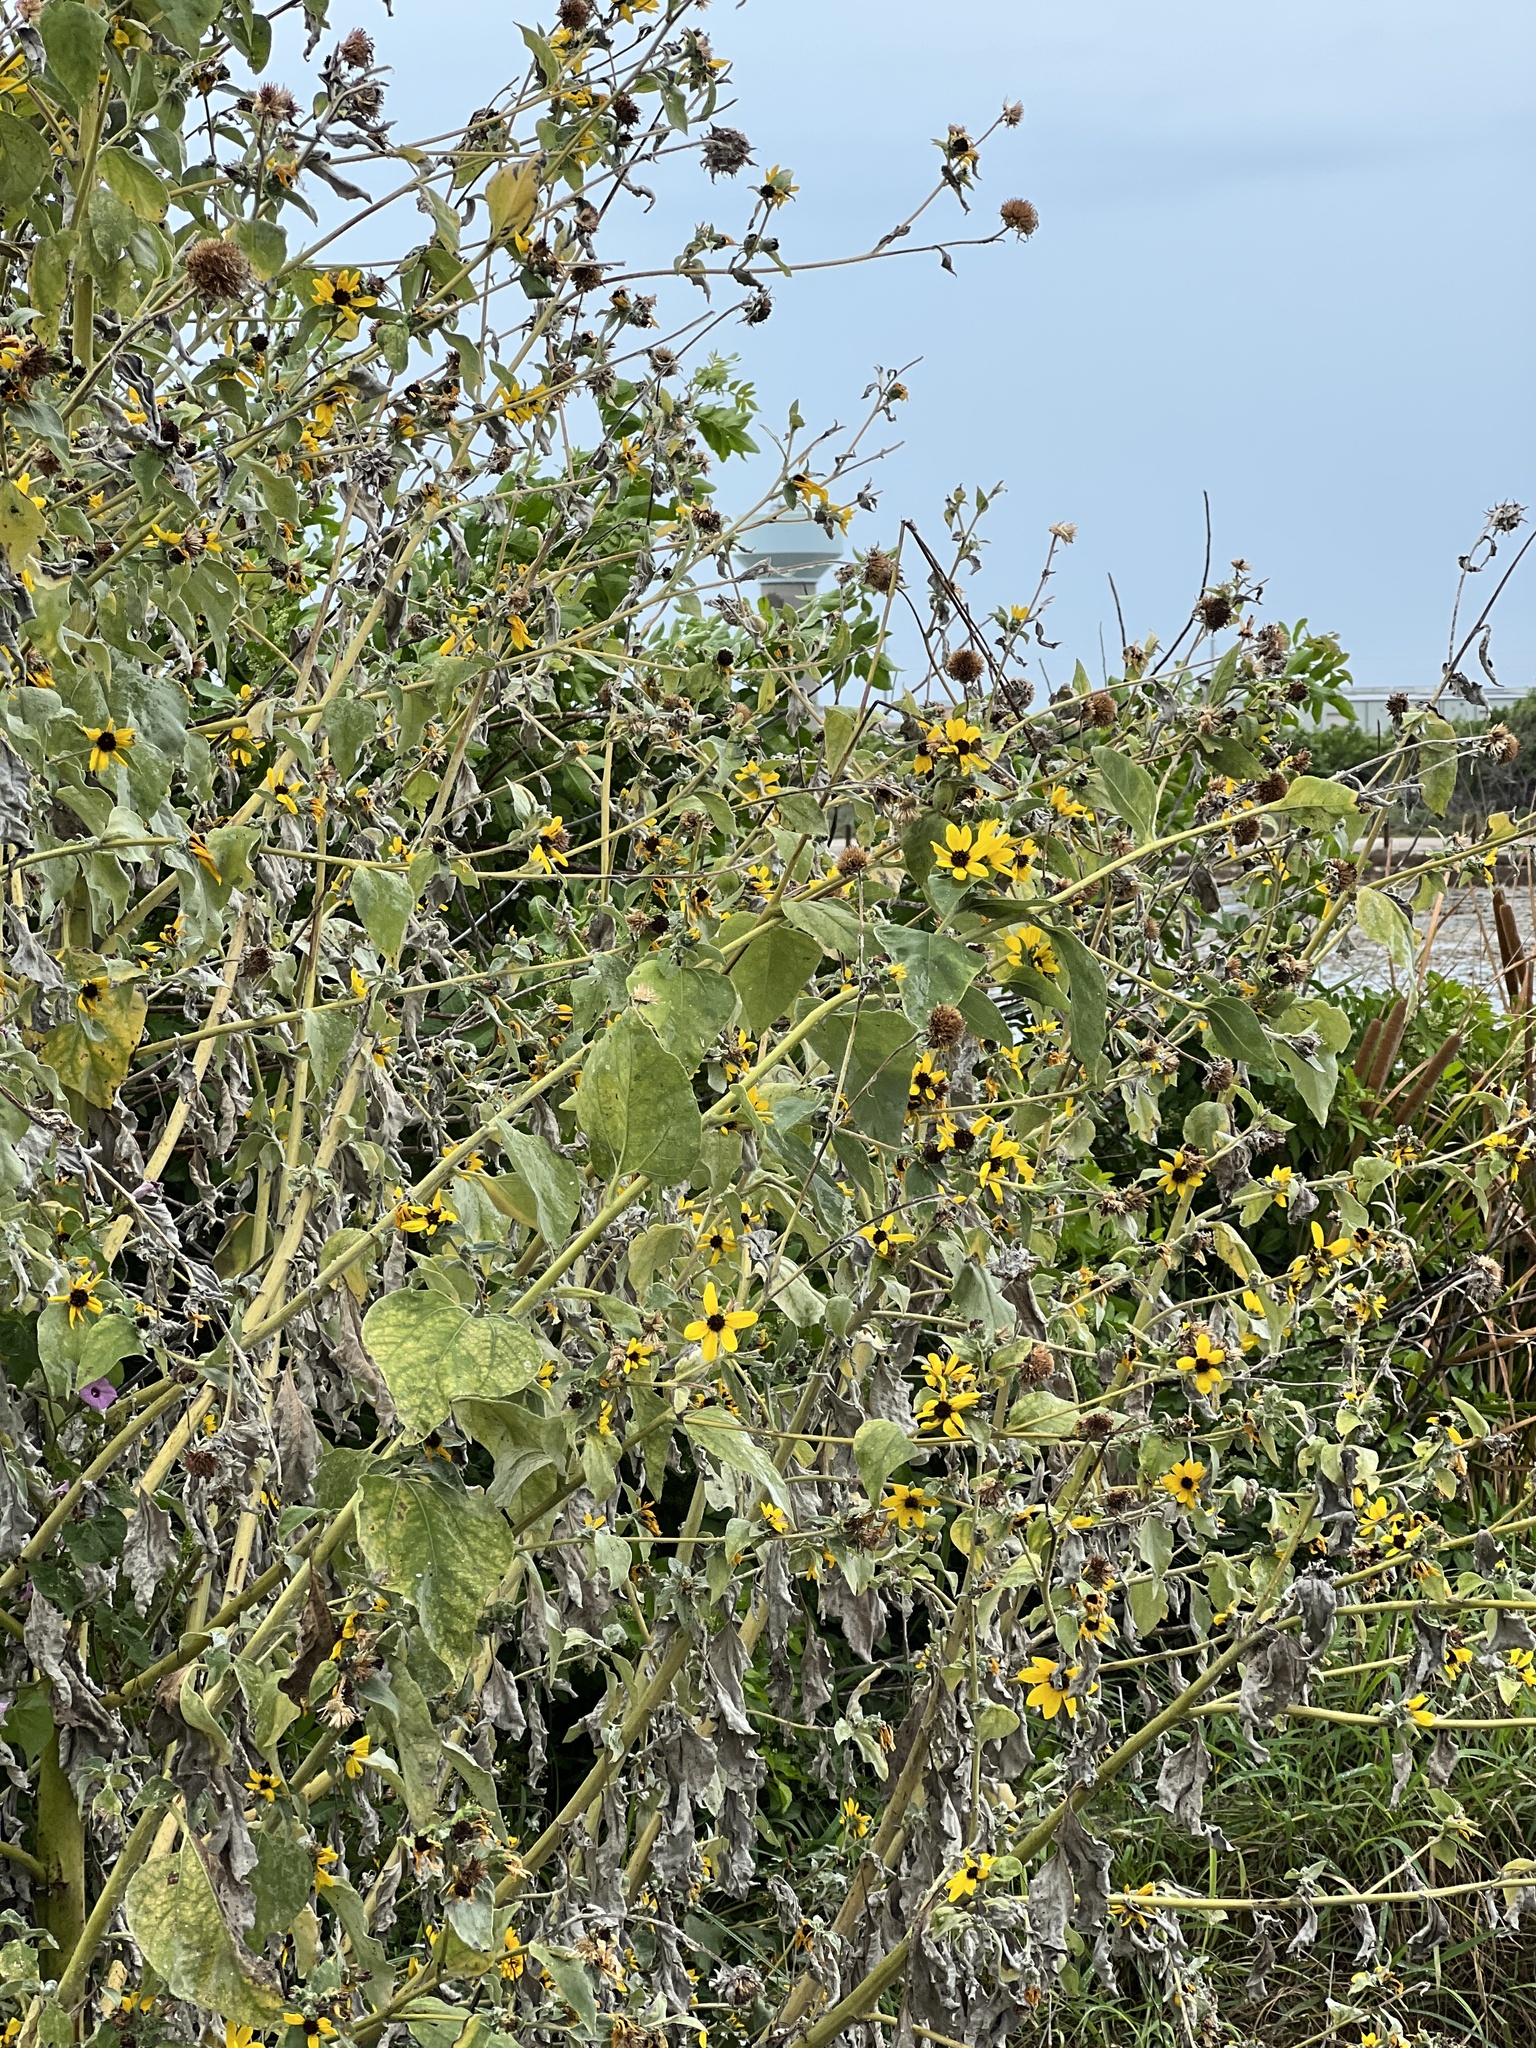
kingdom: Plantae
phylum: Tracheophyta
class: Magnoliopsida
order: Asterales
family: Asteraceae
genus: Helianthus
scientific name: Helianthus argophyllus
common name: Silverleaf sunflower
